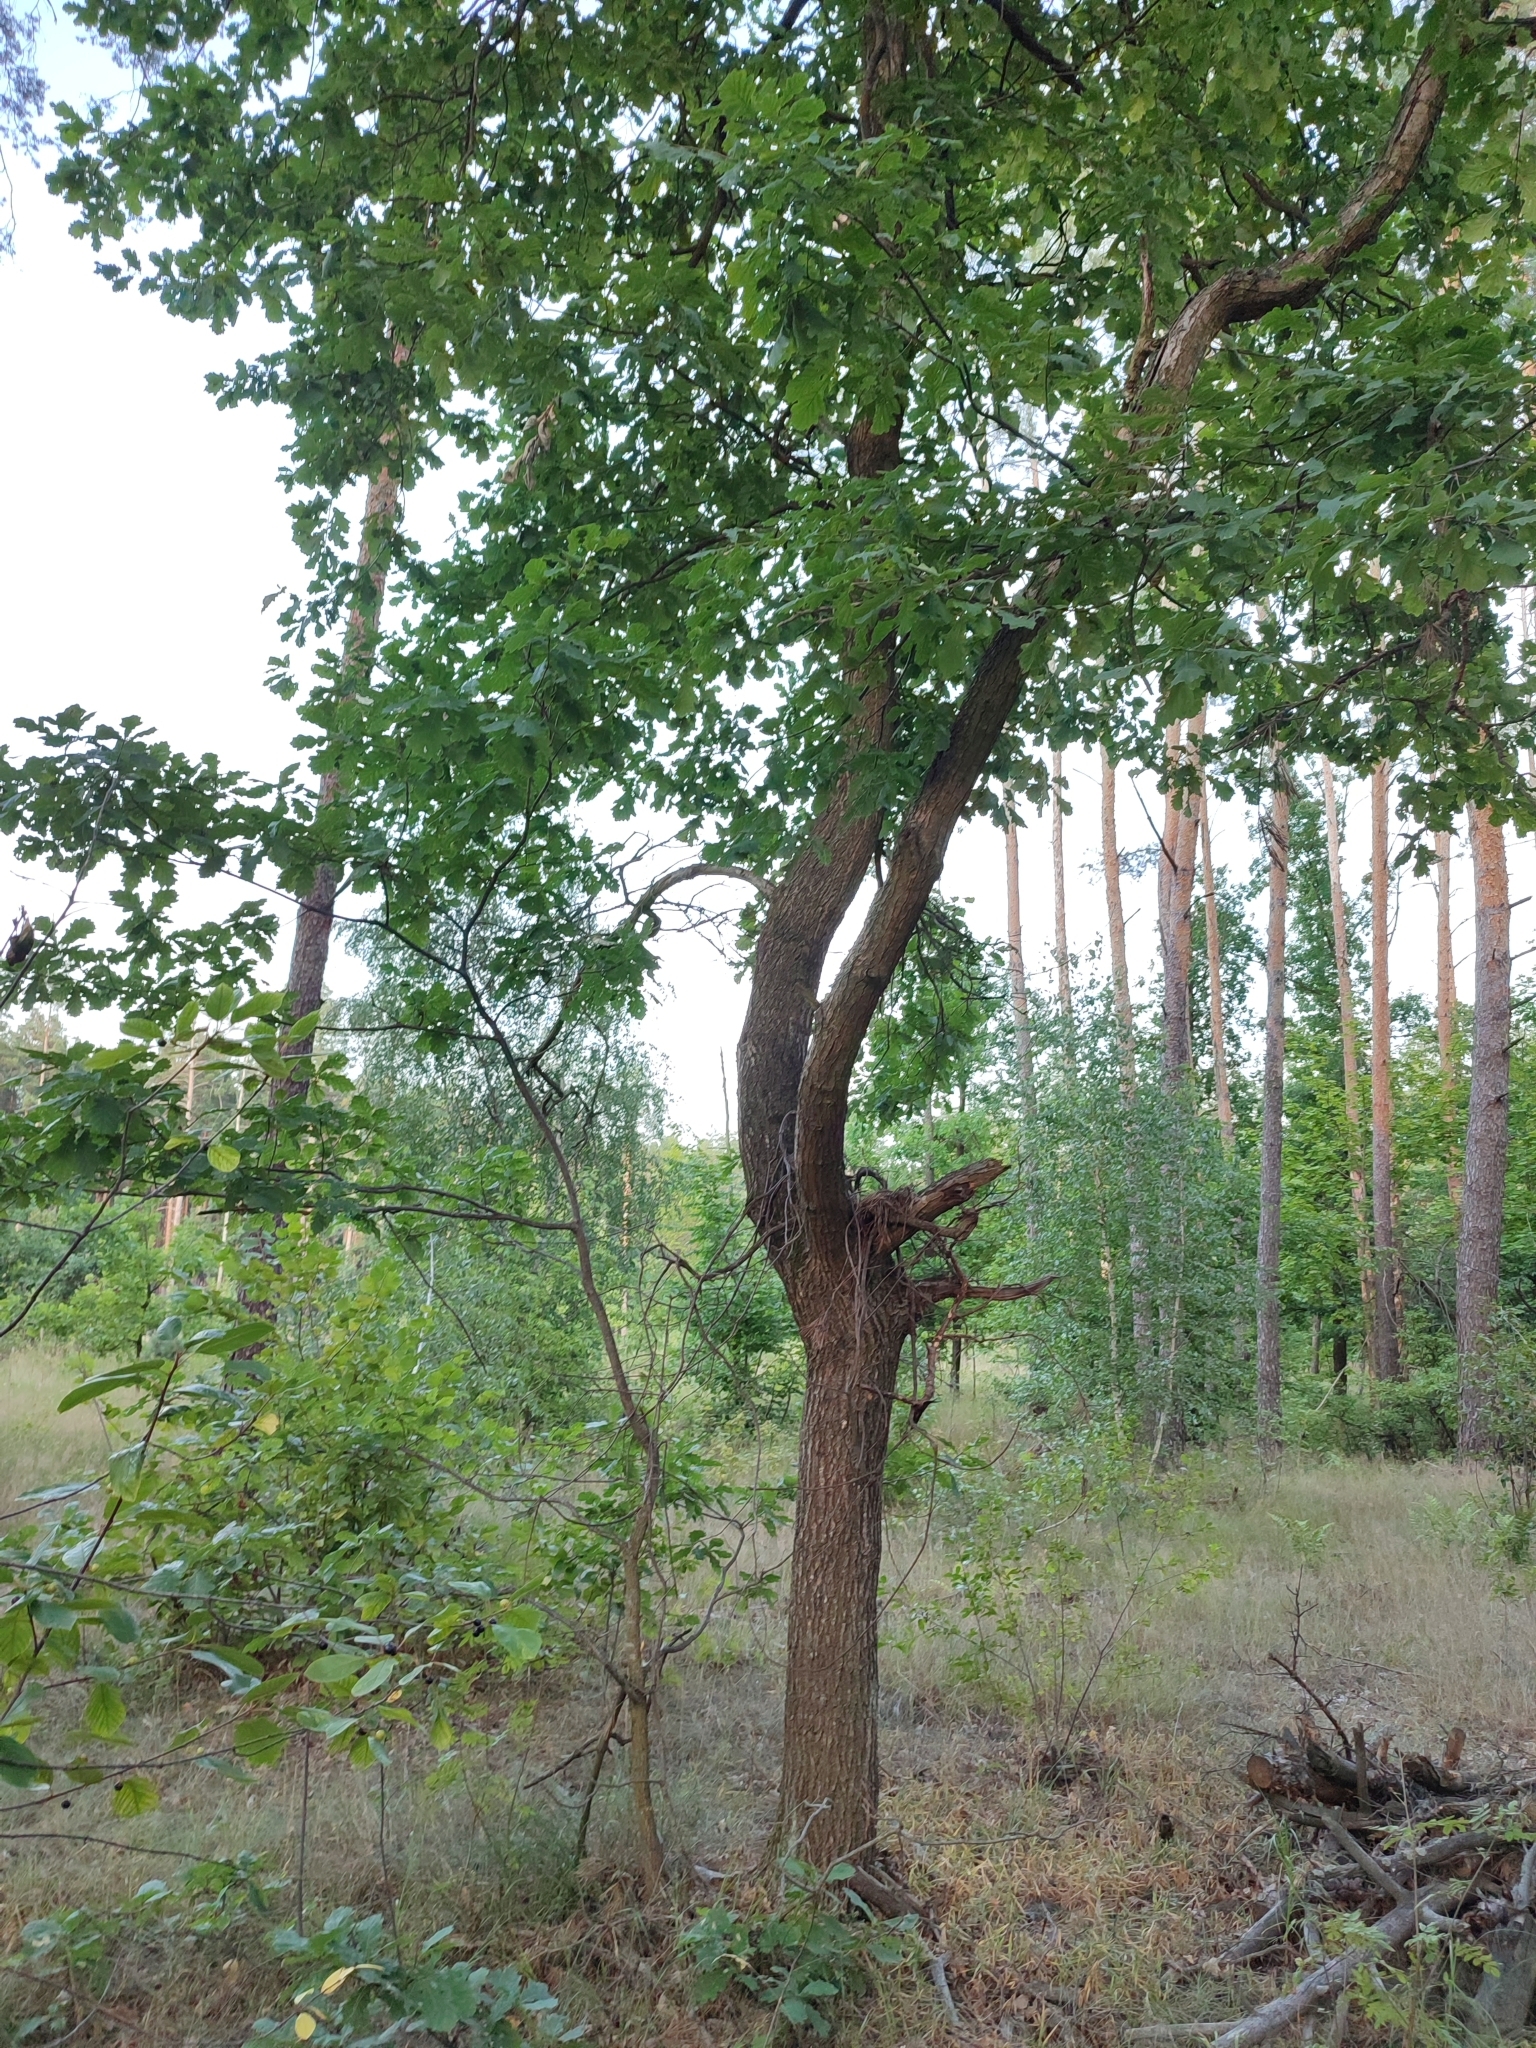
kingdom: Plantae
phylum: Tracheophyta
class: Magnoliopsida
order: Fagales
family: Fagaceae
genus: Quercus
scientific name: Quercus robur
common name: Pedunculate oak
